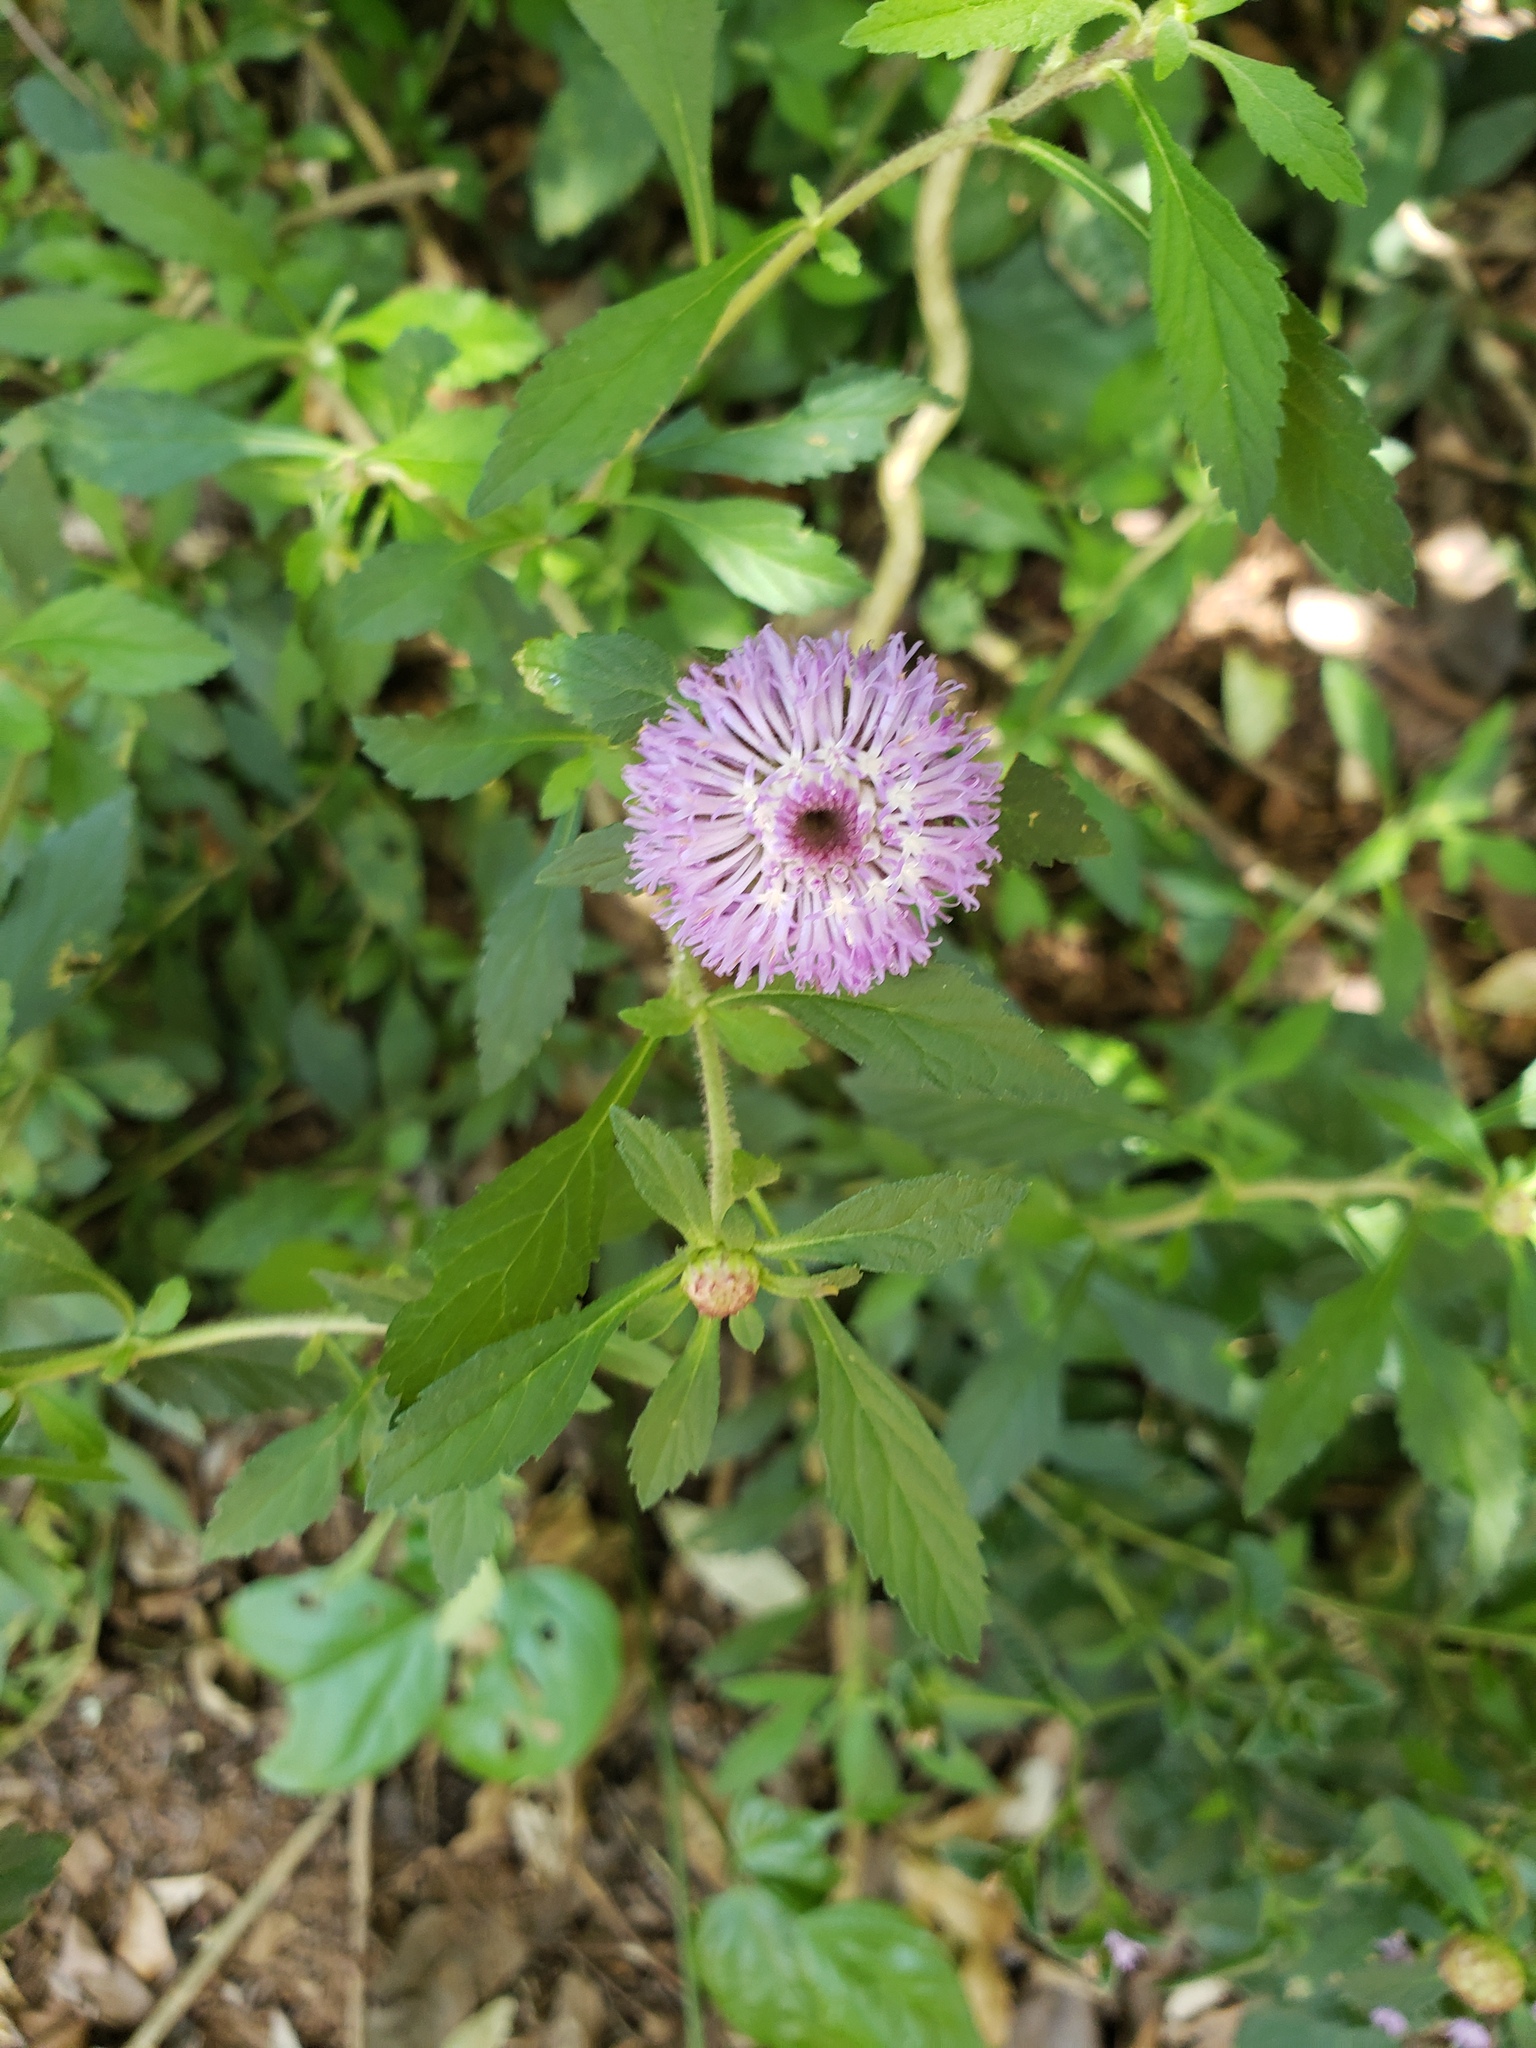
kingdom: Plantae
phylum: Tracheophyta
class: Magnoliopsida
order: Asterales
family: Asteraceae
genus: Centratherum
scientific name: Centratherum punctatum
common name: Larkdaisy
